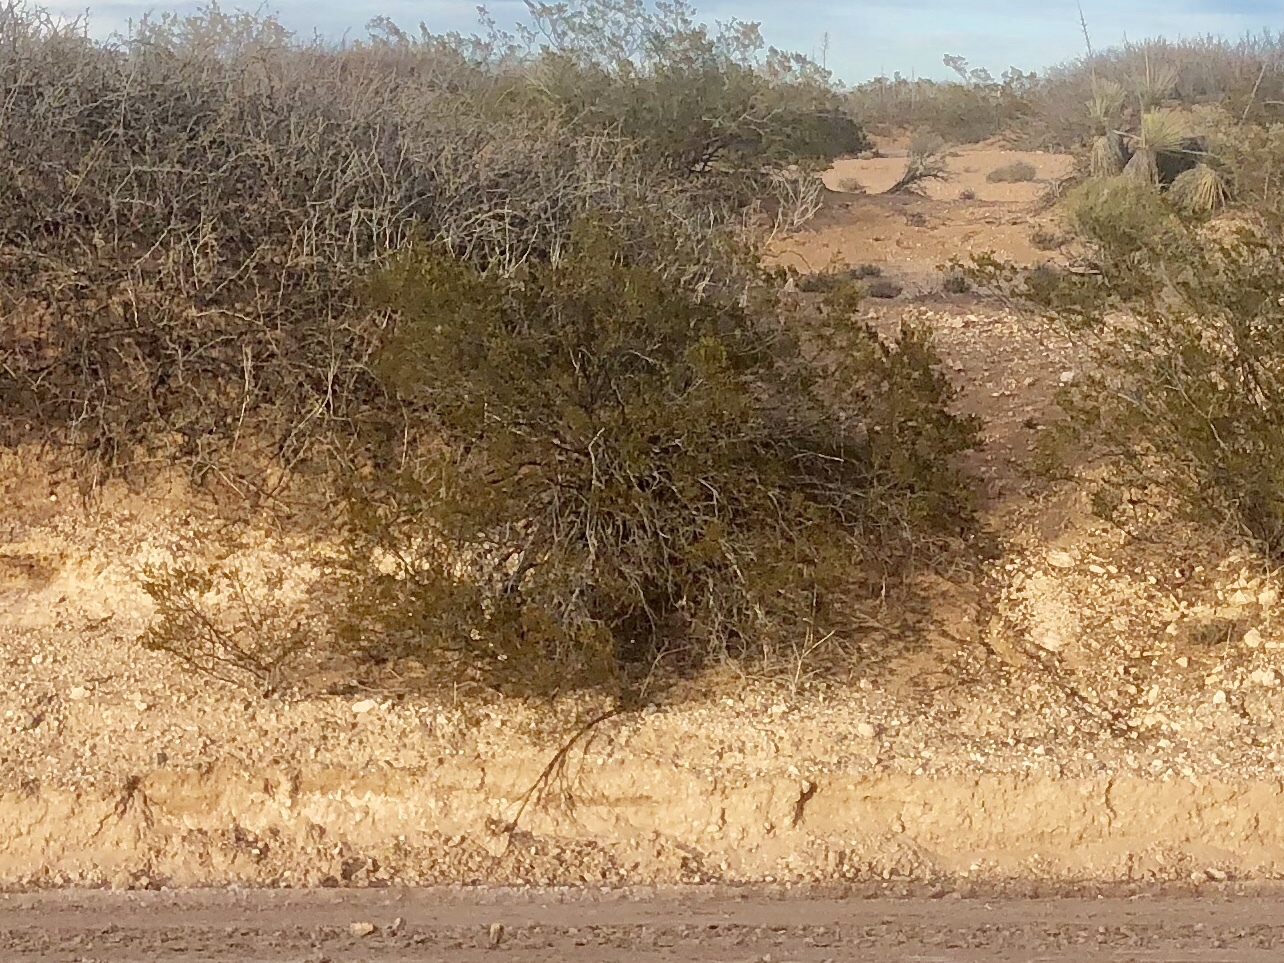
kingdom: Plantae
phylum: Tracheophyta
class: Magnoliopsida
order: Zygophyllales
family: Zygophyllaceae
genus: Larrea
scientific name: Larrea tridentata
